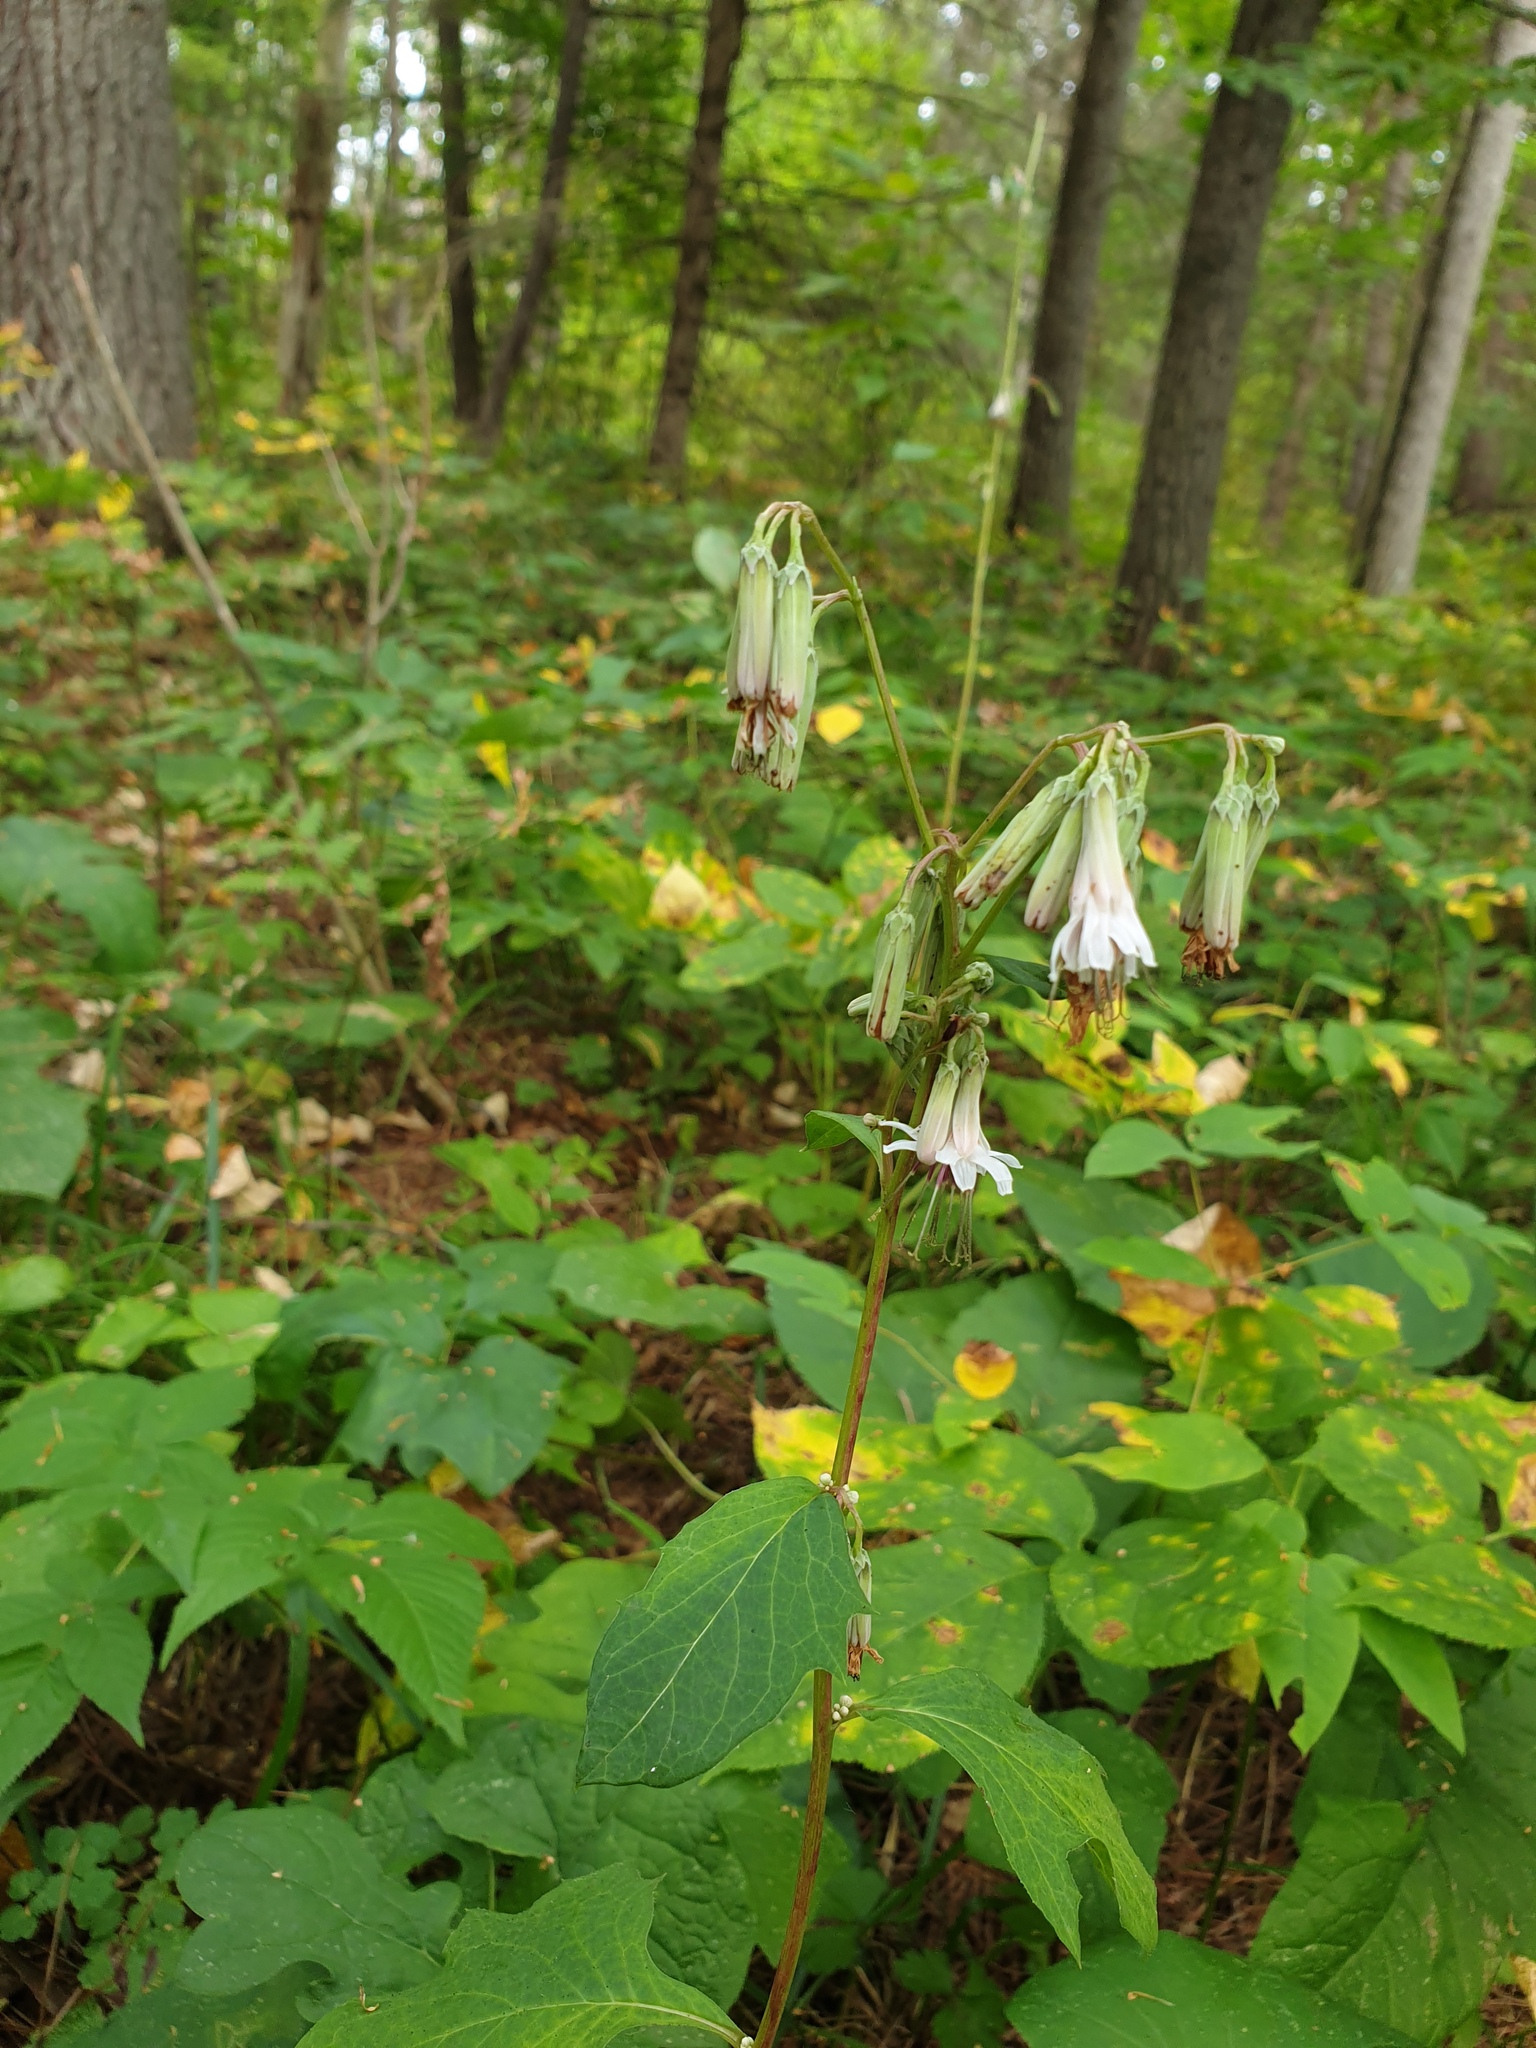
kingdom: Plantae
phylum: Tracheophyta
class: Magnoliopsida
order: Asterales
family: Asteraceae
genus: Nabalus
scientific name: Nabalus albus
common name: White rattlesnakeroot
